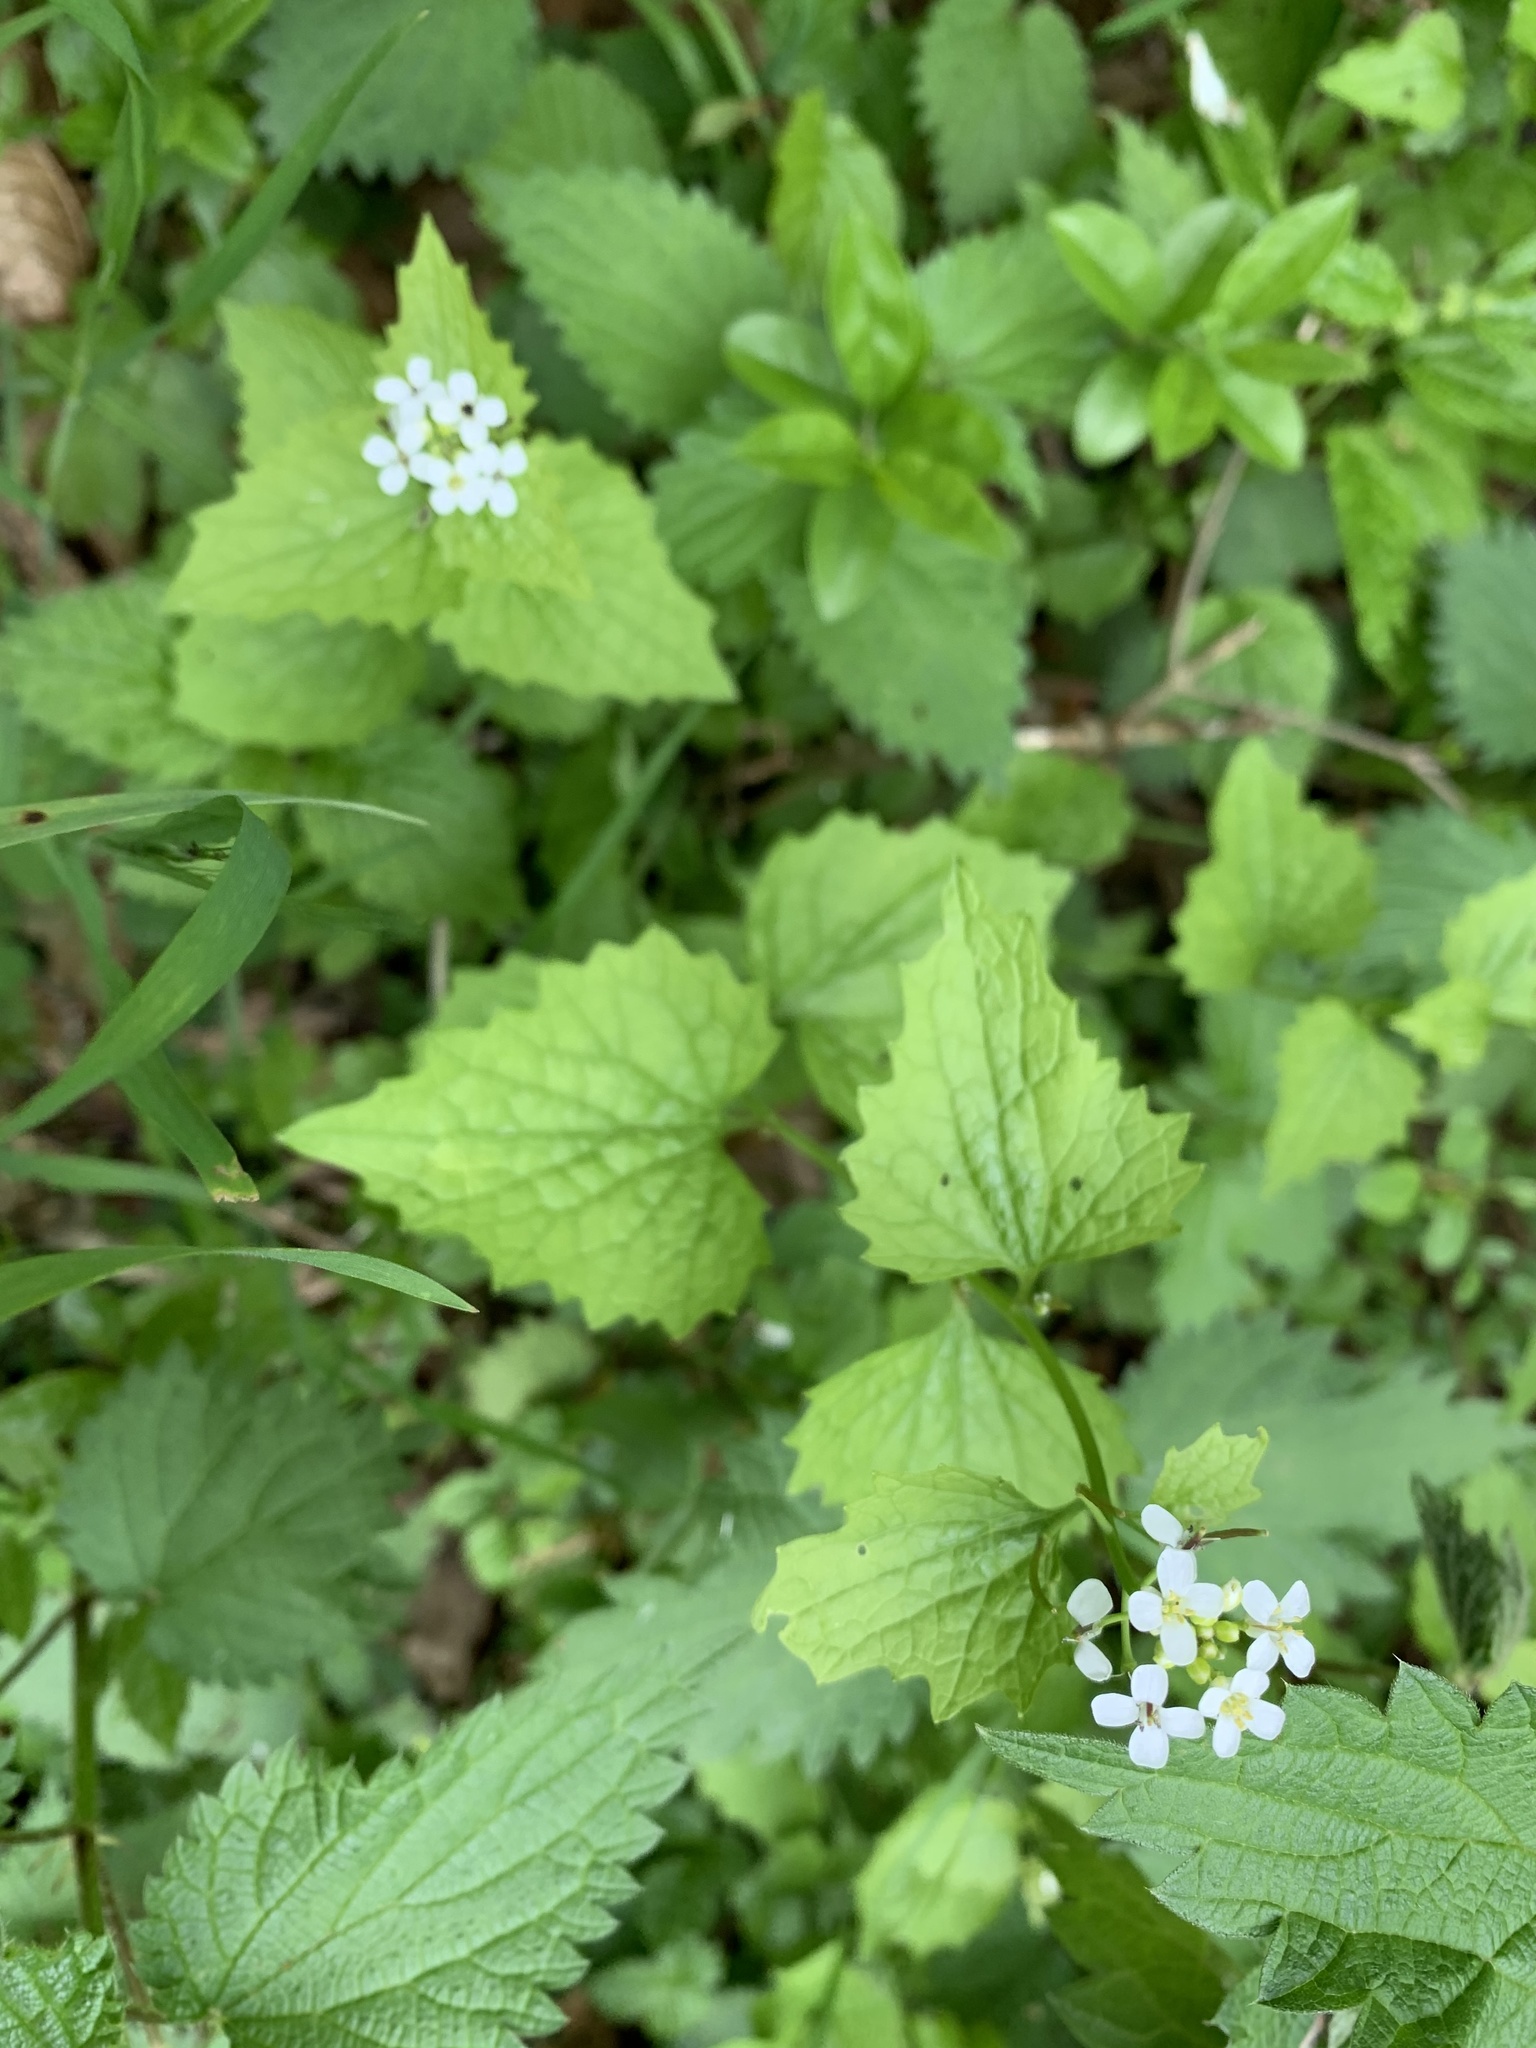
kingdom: Plantae
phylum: Tracheophyta
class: Magnoliopsida
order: Brassicales
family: Brassicaceae
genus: Alliaria
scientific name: Alliaria petiolata
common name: Garlic mustard
